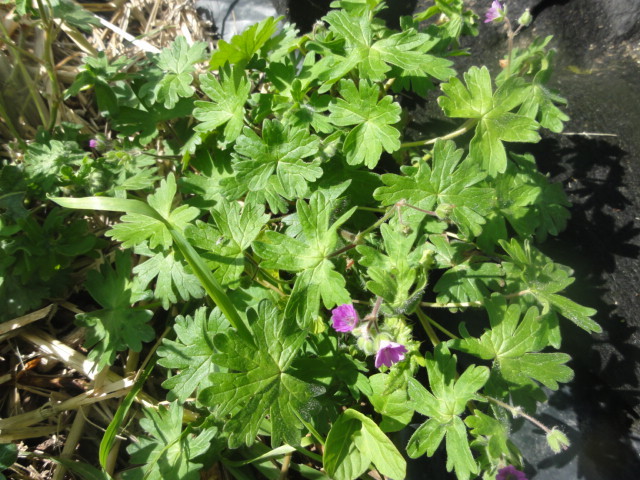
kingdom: Plantae
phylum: Tracheophyta
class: Magnoliopsida
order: Geraniales
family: Geraniaceae
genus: Geranium
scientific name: Geranium molle
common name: Dove's-foot crane's-bill
